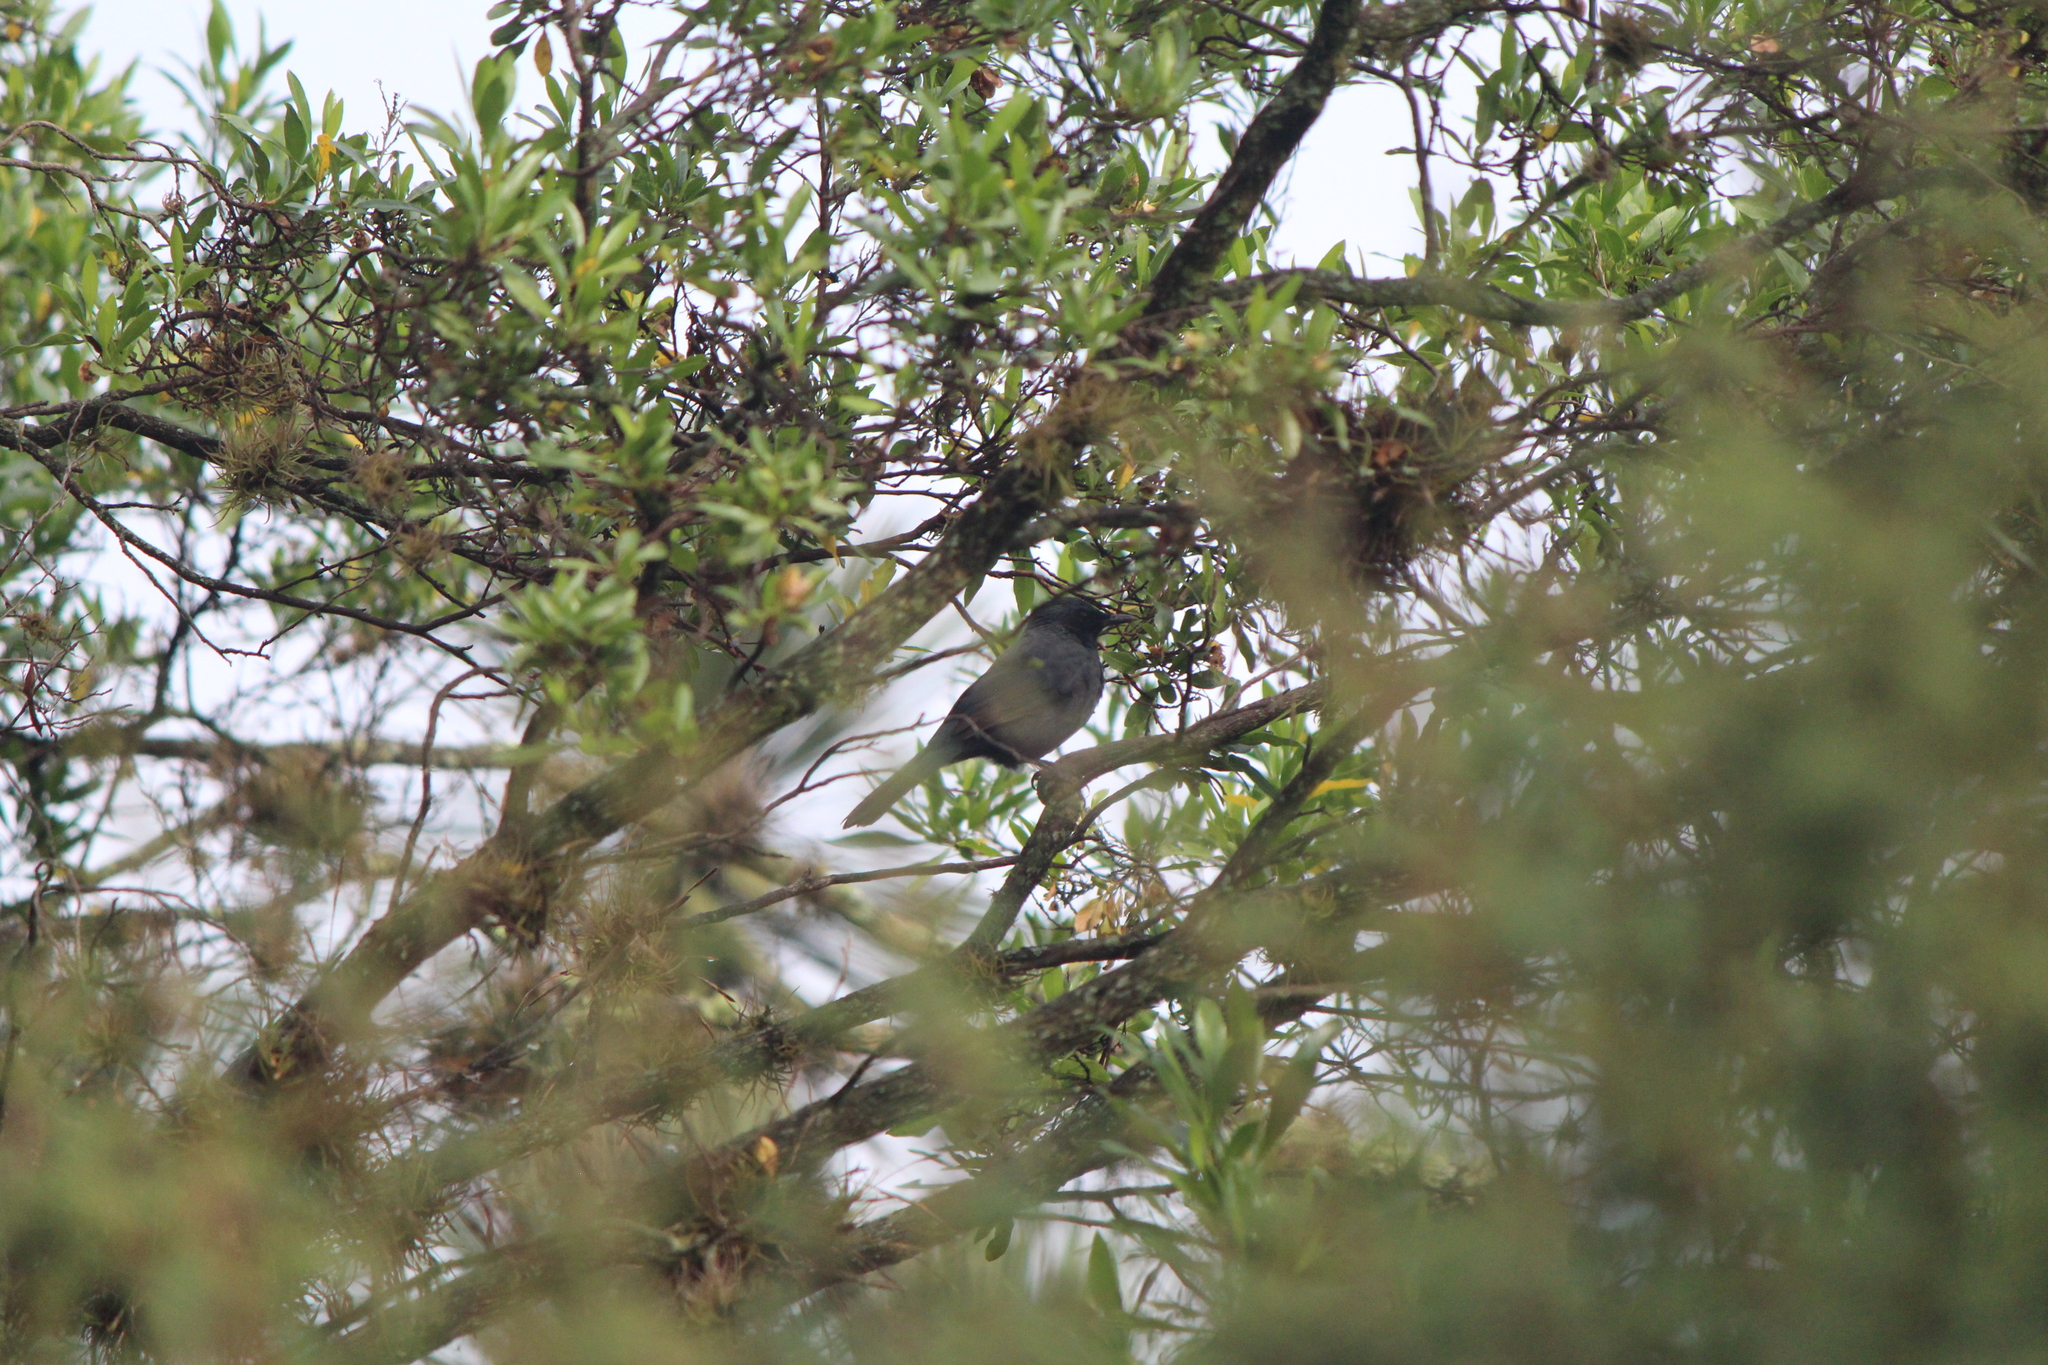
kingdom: Animalia
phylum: Chordata
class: Aves
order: Passeriformes
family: Mimidae
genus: Melanotis
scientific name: Melanotis caerulescens
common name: Blue mockingbird
